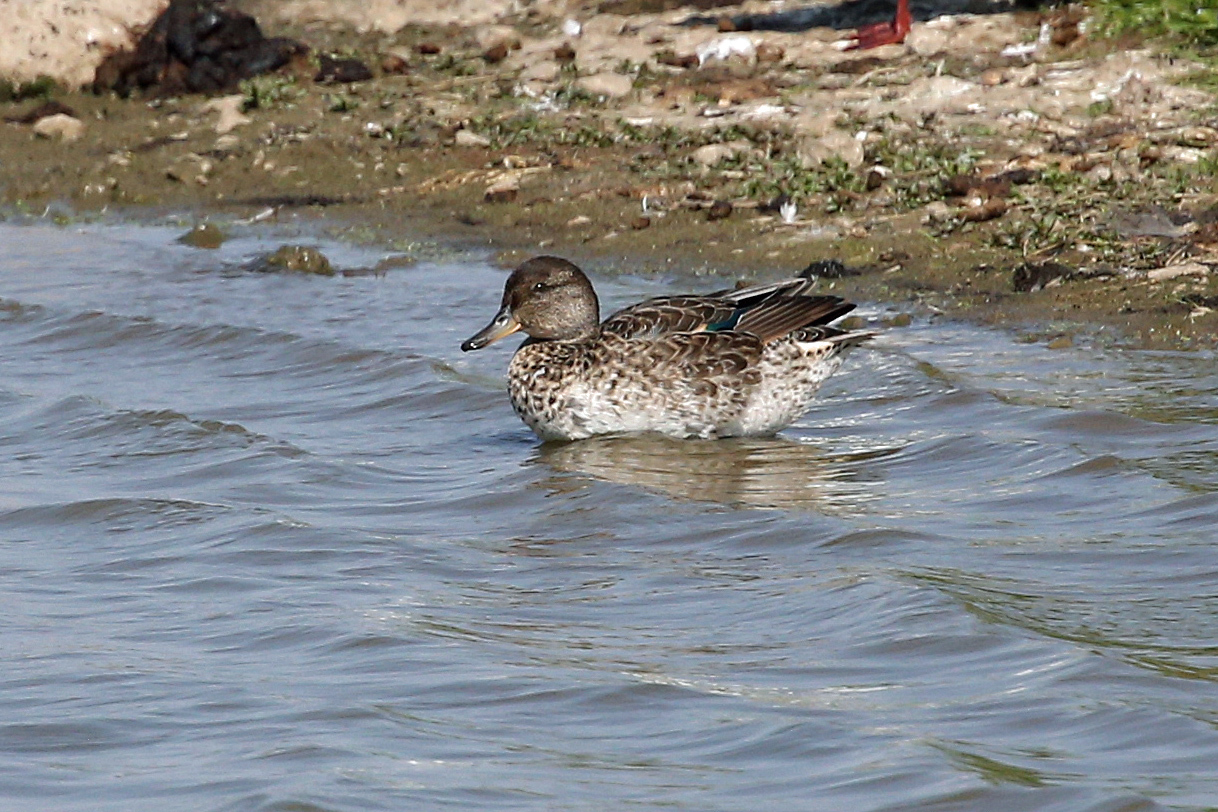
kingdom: Animalia
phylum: Chordata
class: Aves
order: Anseriformes
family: Anatidae
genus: Anas
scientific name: Anas crecca
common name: Eurasian teal
